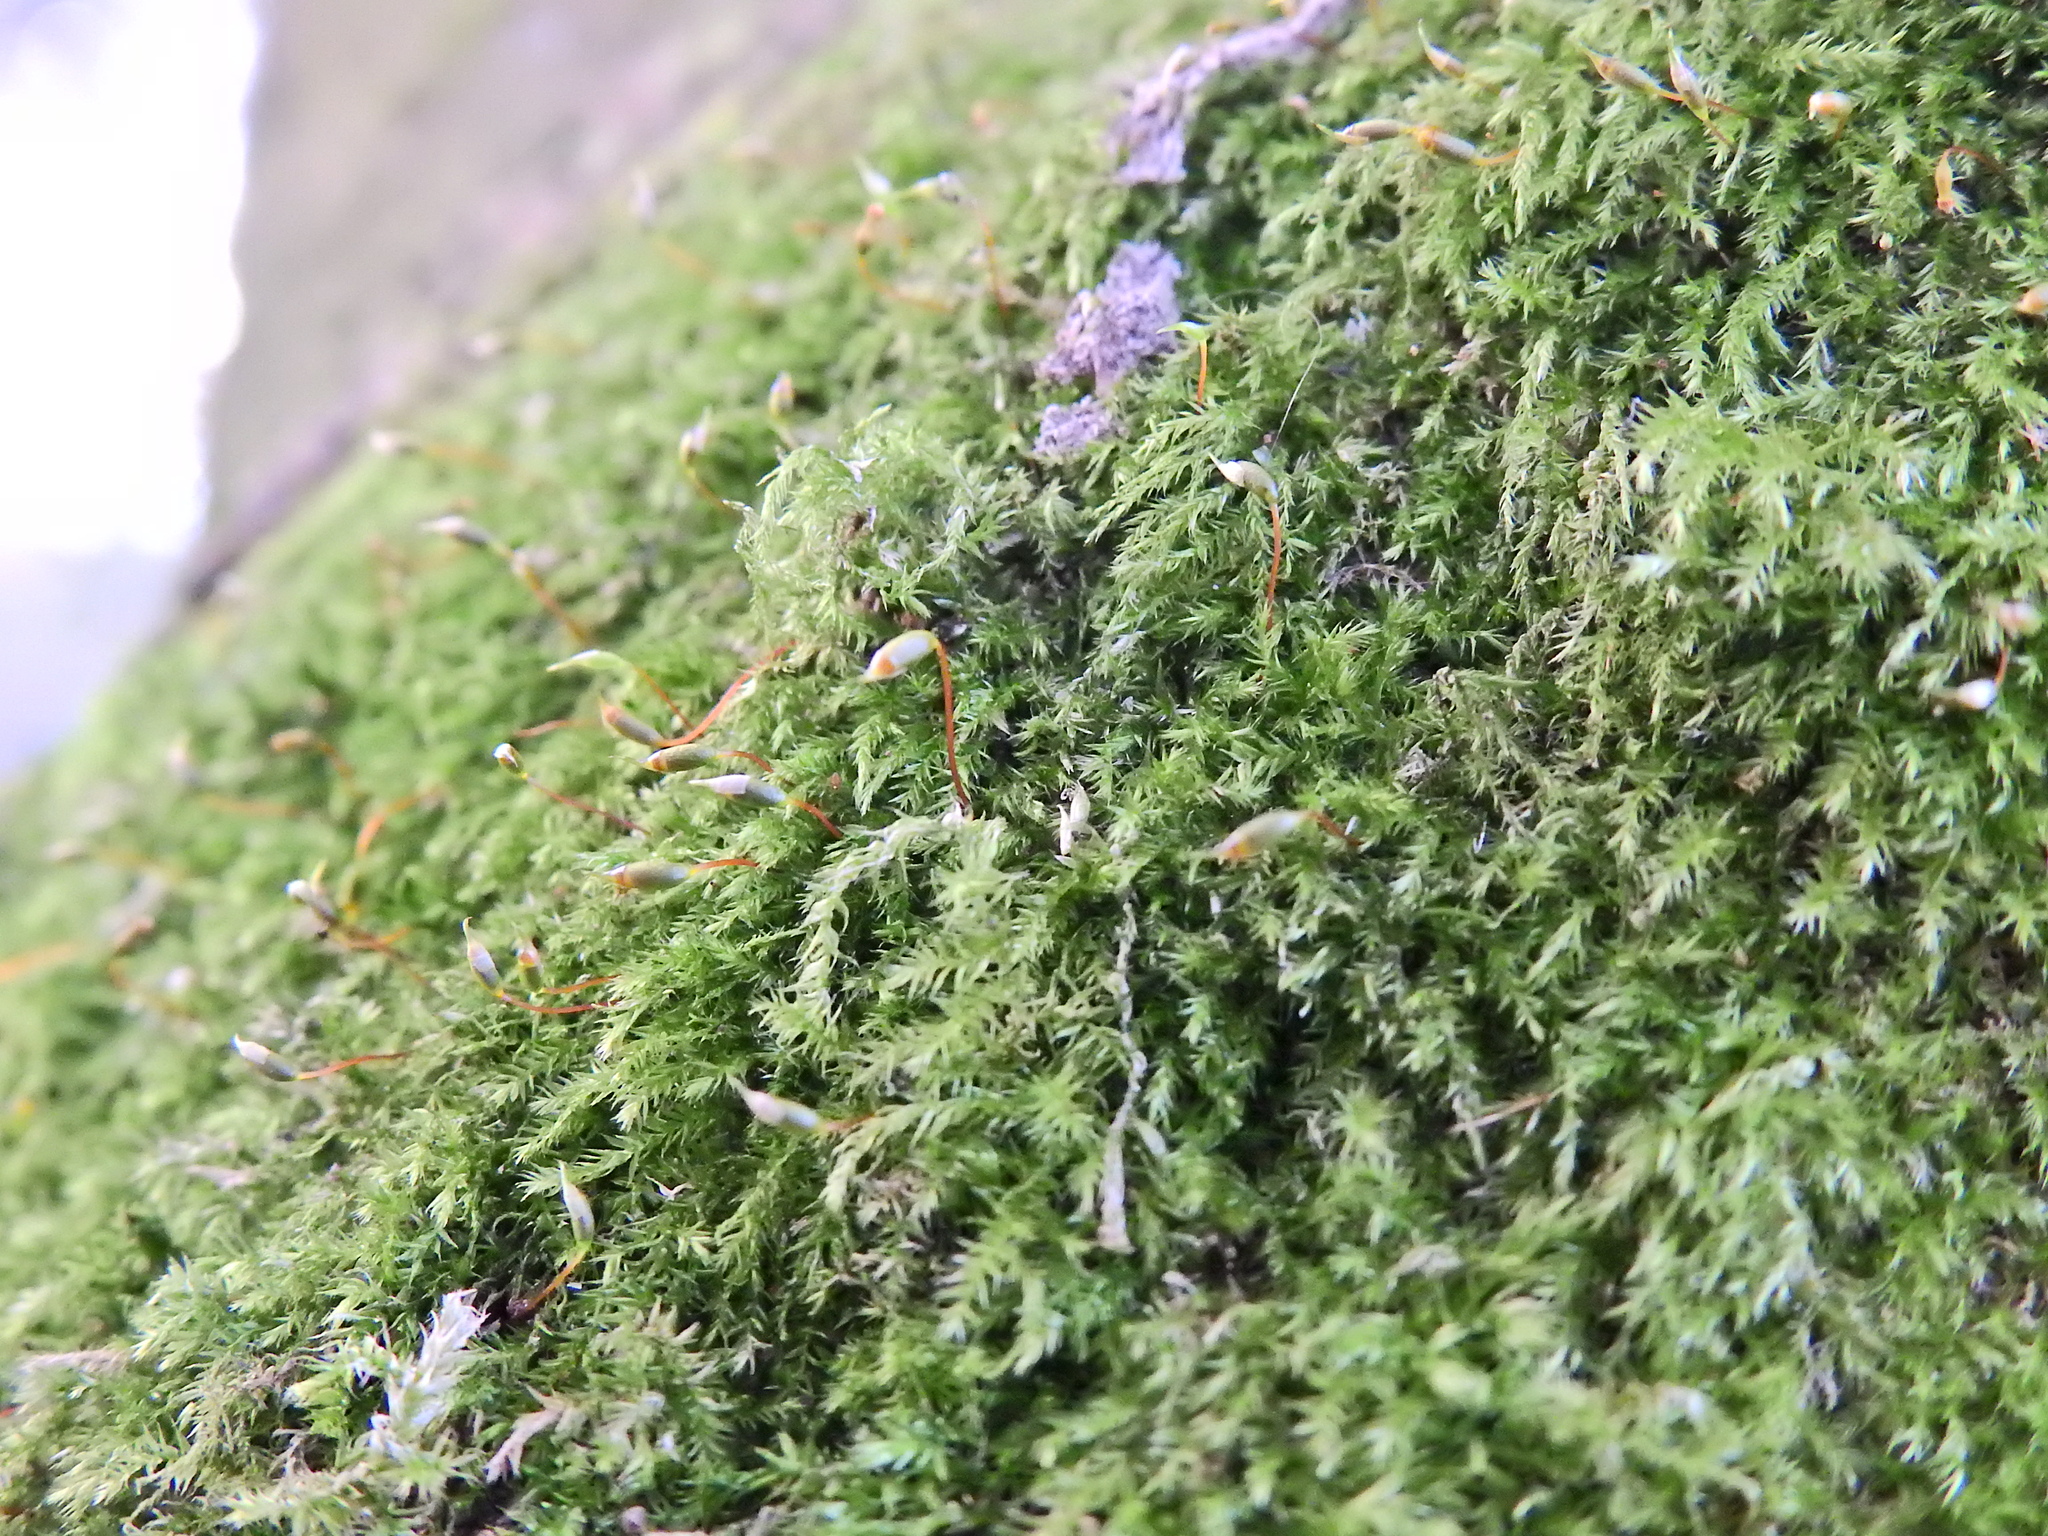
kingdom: Plantae
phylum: Bryophyta
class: Bryopsida
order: Hypnales
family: Brachytheciaceae
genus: Rhynchostegium
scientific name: Rhynchostegium confertum
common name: Clustered feather-moss
